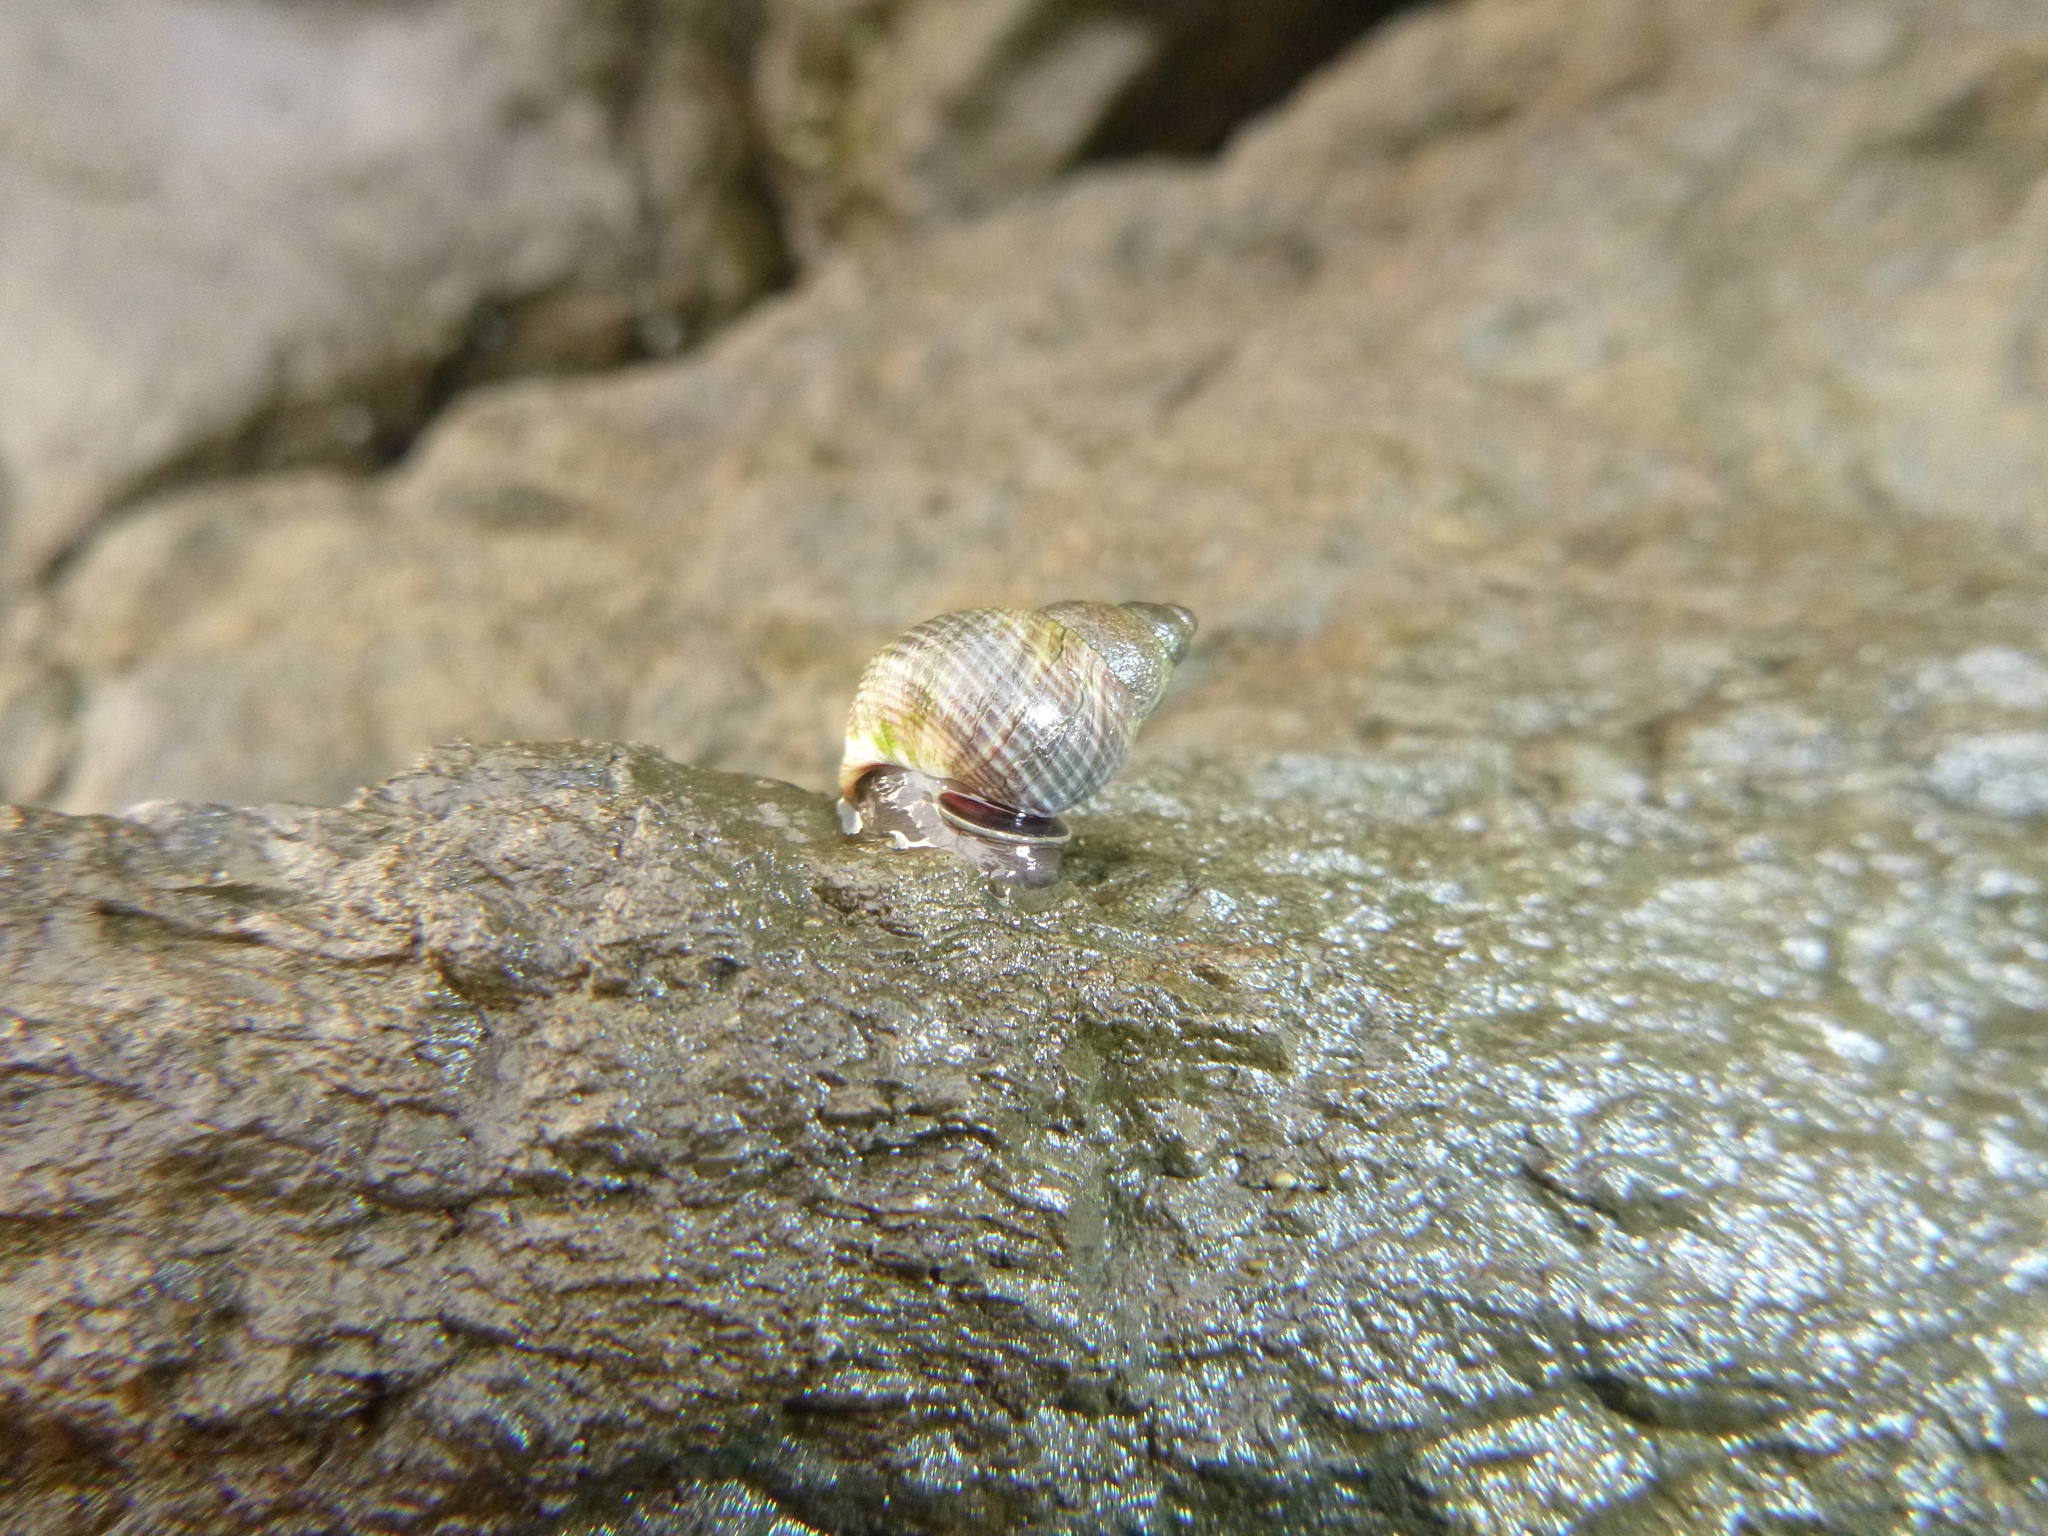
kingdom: Animalia
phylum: Mollusca
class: Gastropoda
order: Littorinimorpha
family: Littorinidae
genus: Austrolittorina
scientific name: Austrolittorina cincta
